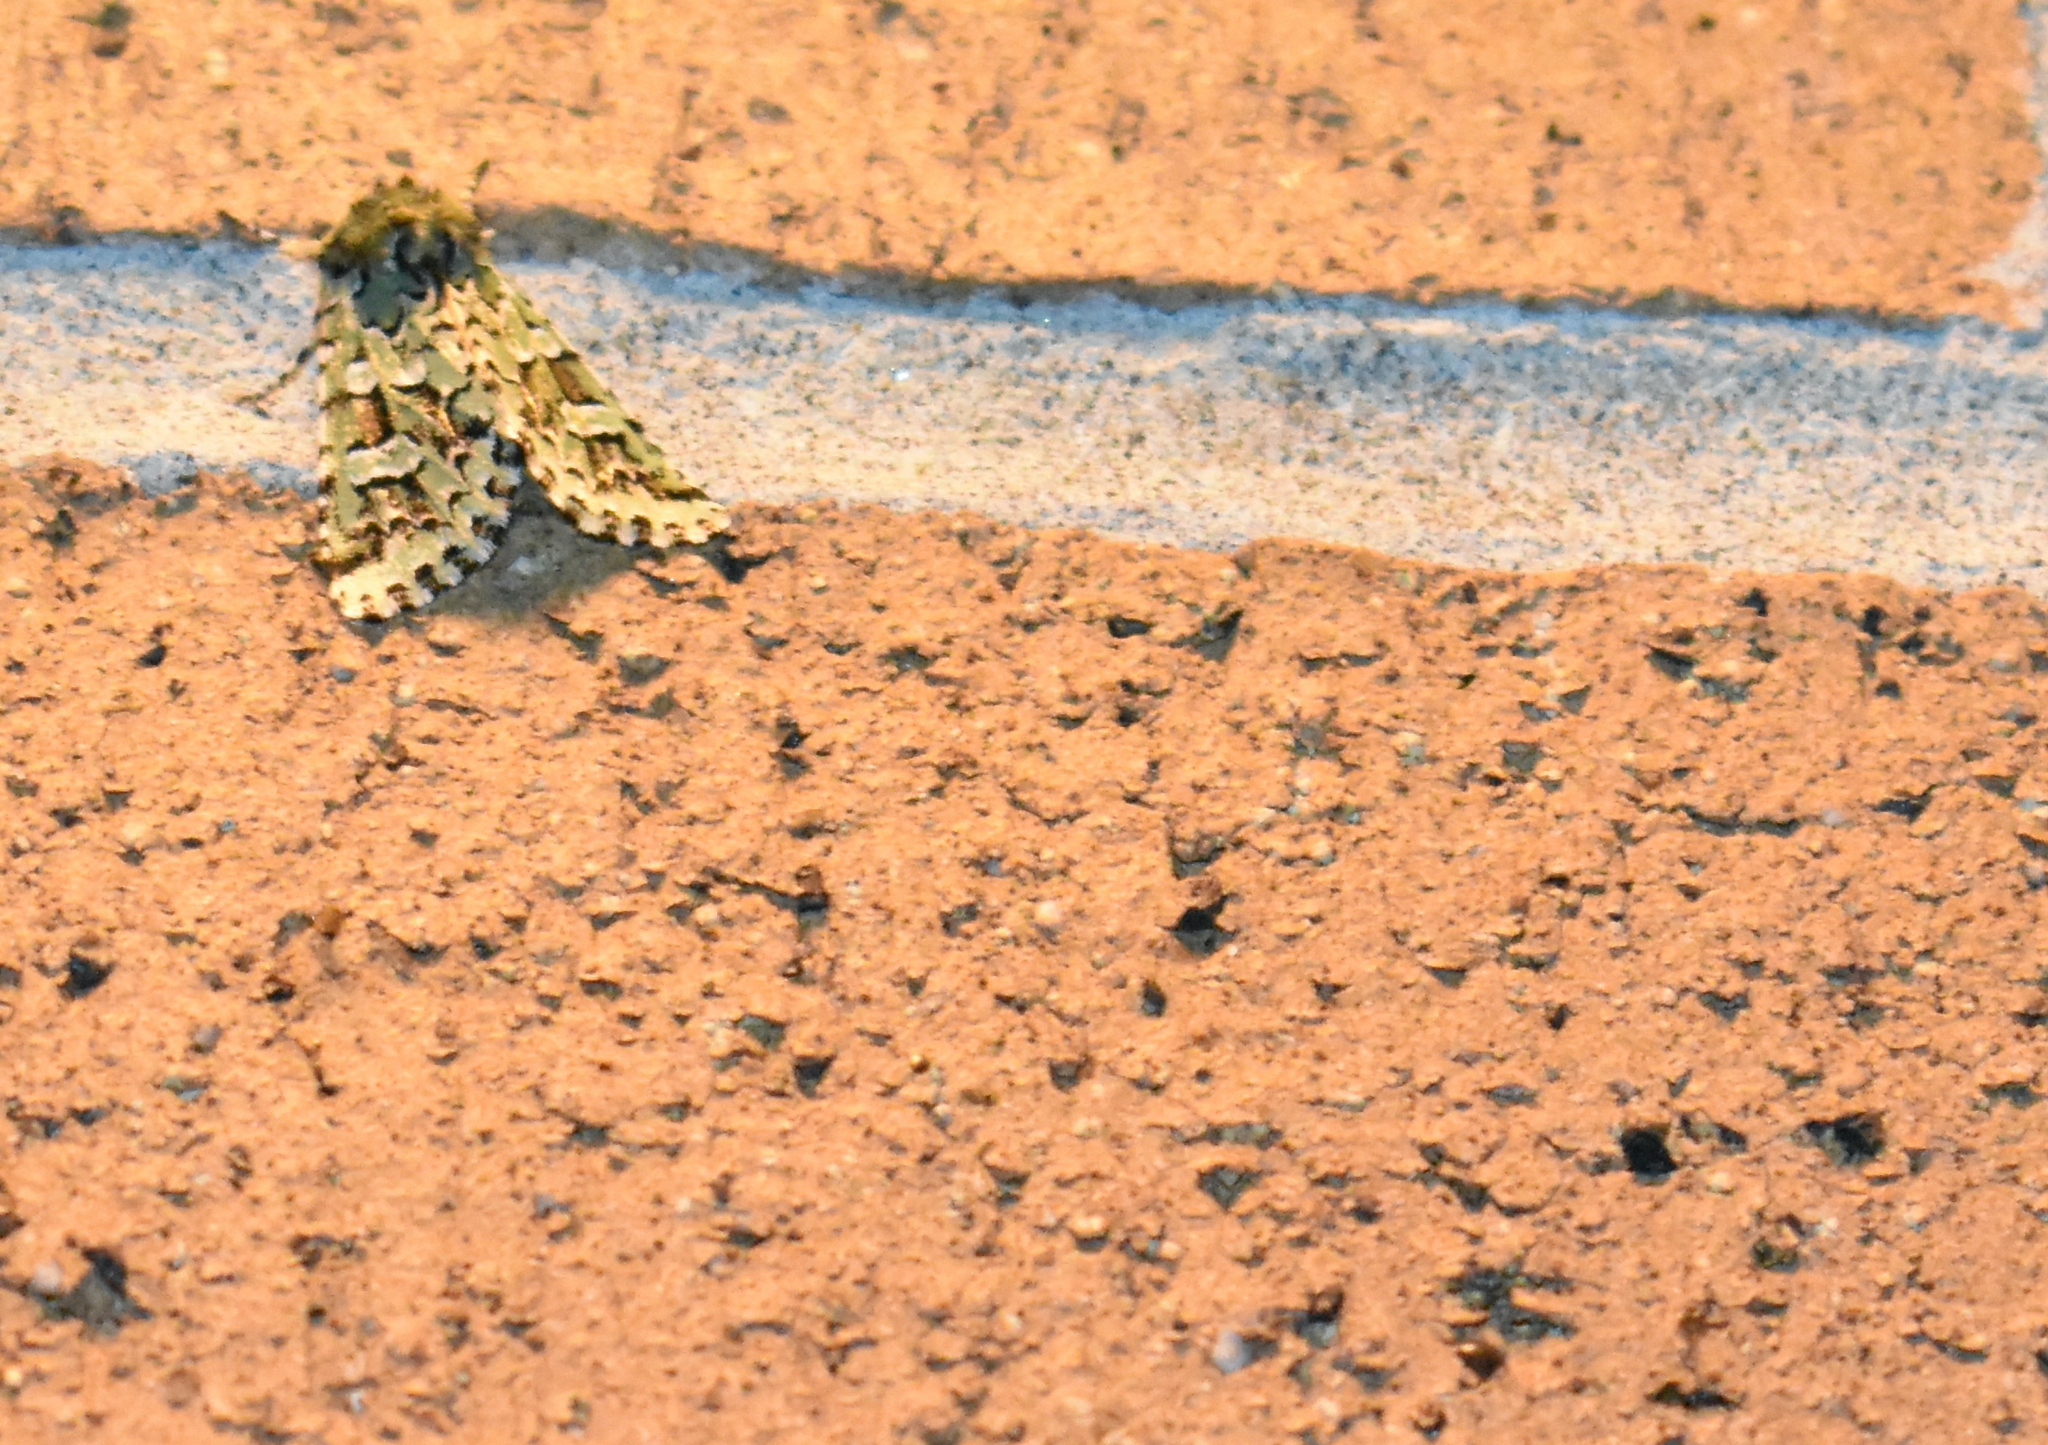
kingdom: Animalia
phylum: Arthropoda
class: Insecta
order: Lepidoptera
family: Noctuidae
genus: Feralia
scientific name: Feralia comstocki
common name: Comstock's sallow
